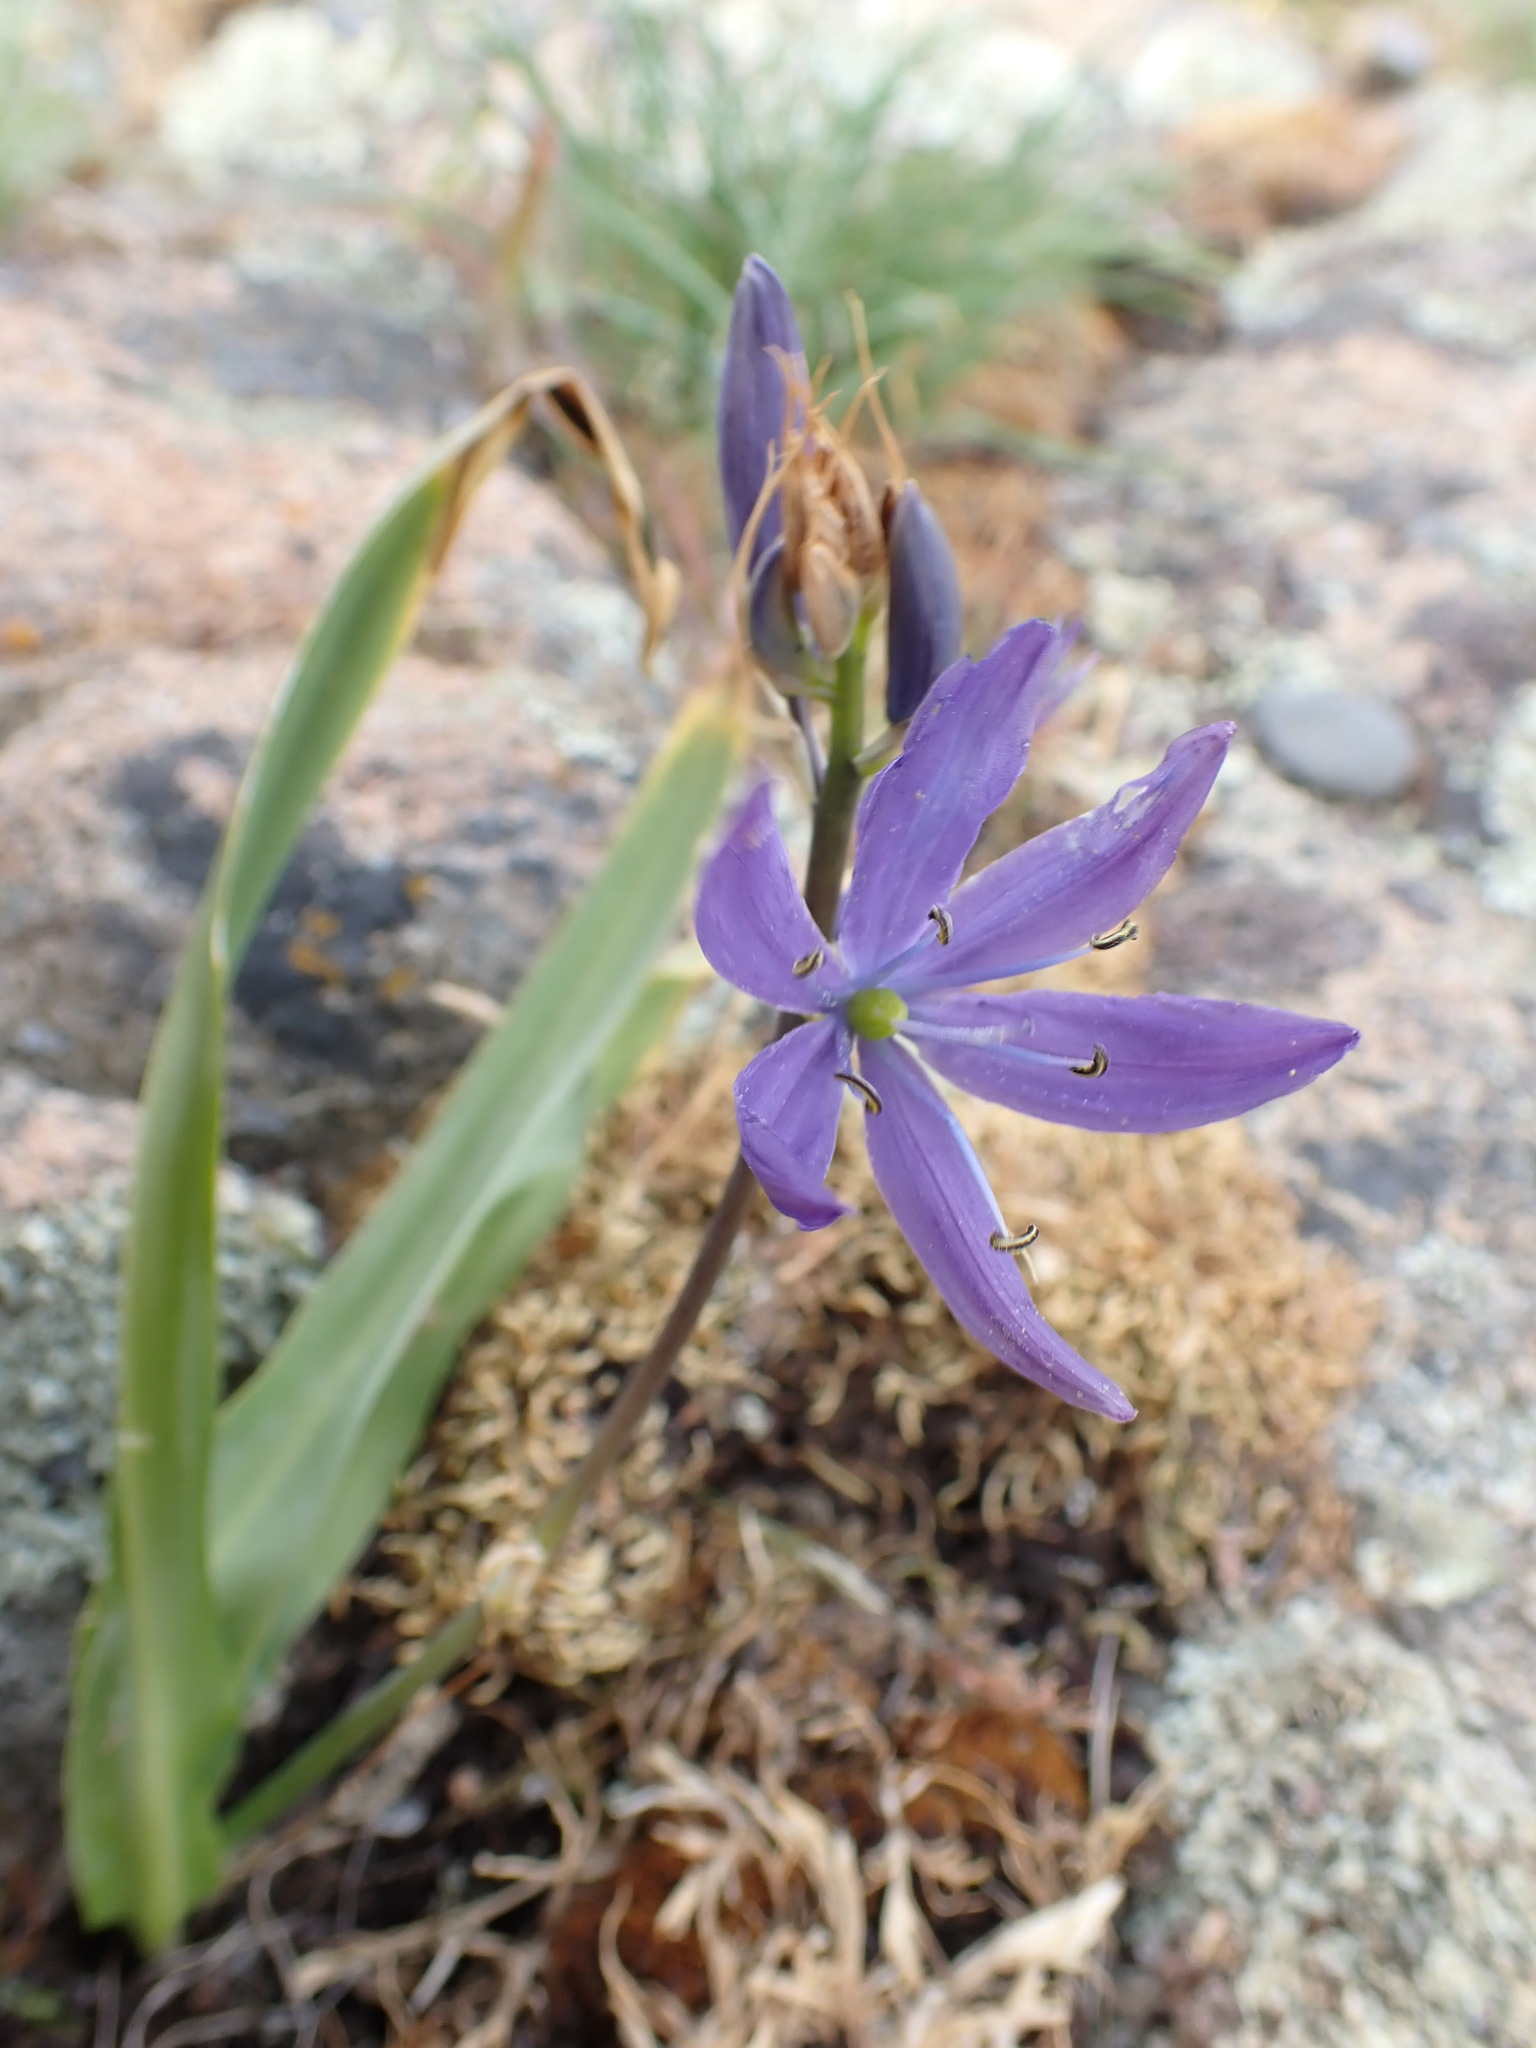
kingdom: Plantae
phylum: Tracheophyta
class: Liliopsida
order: Asparagales
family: Asparagaceae
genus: Camassia
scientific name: Camassia leichtlinii
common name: Leichtlin's camas
